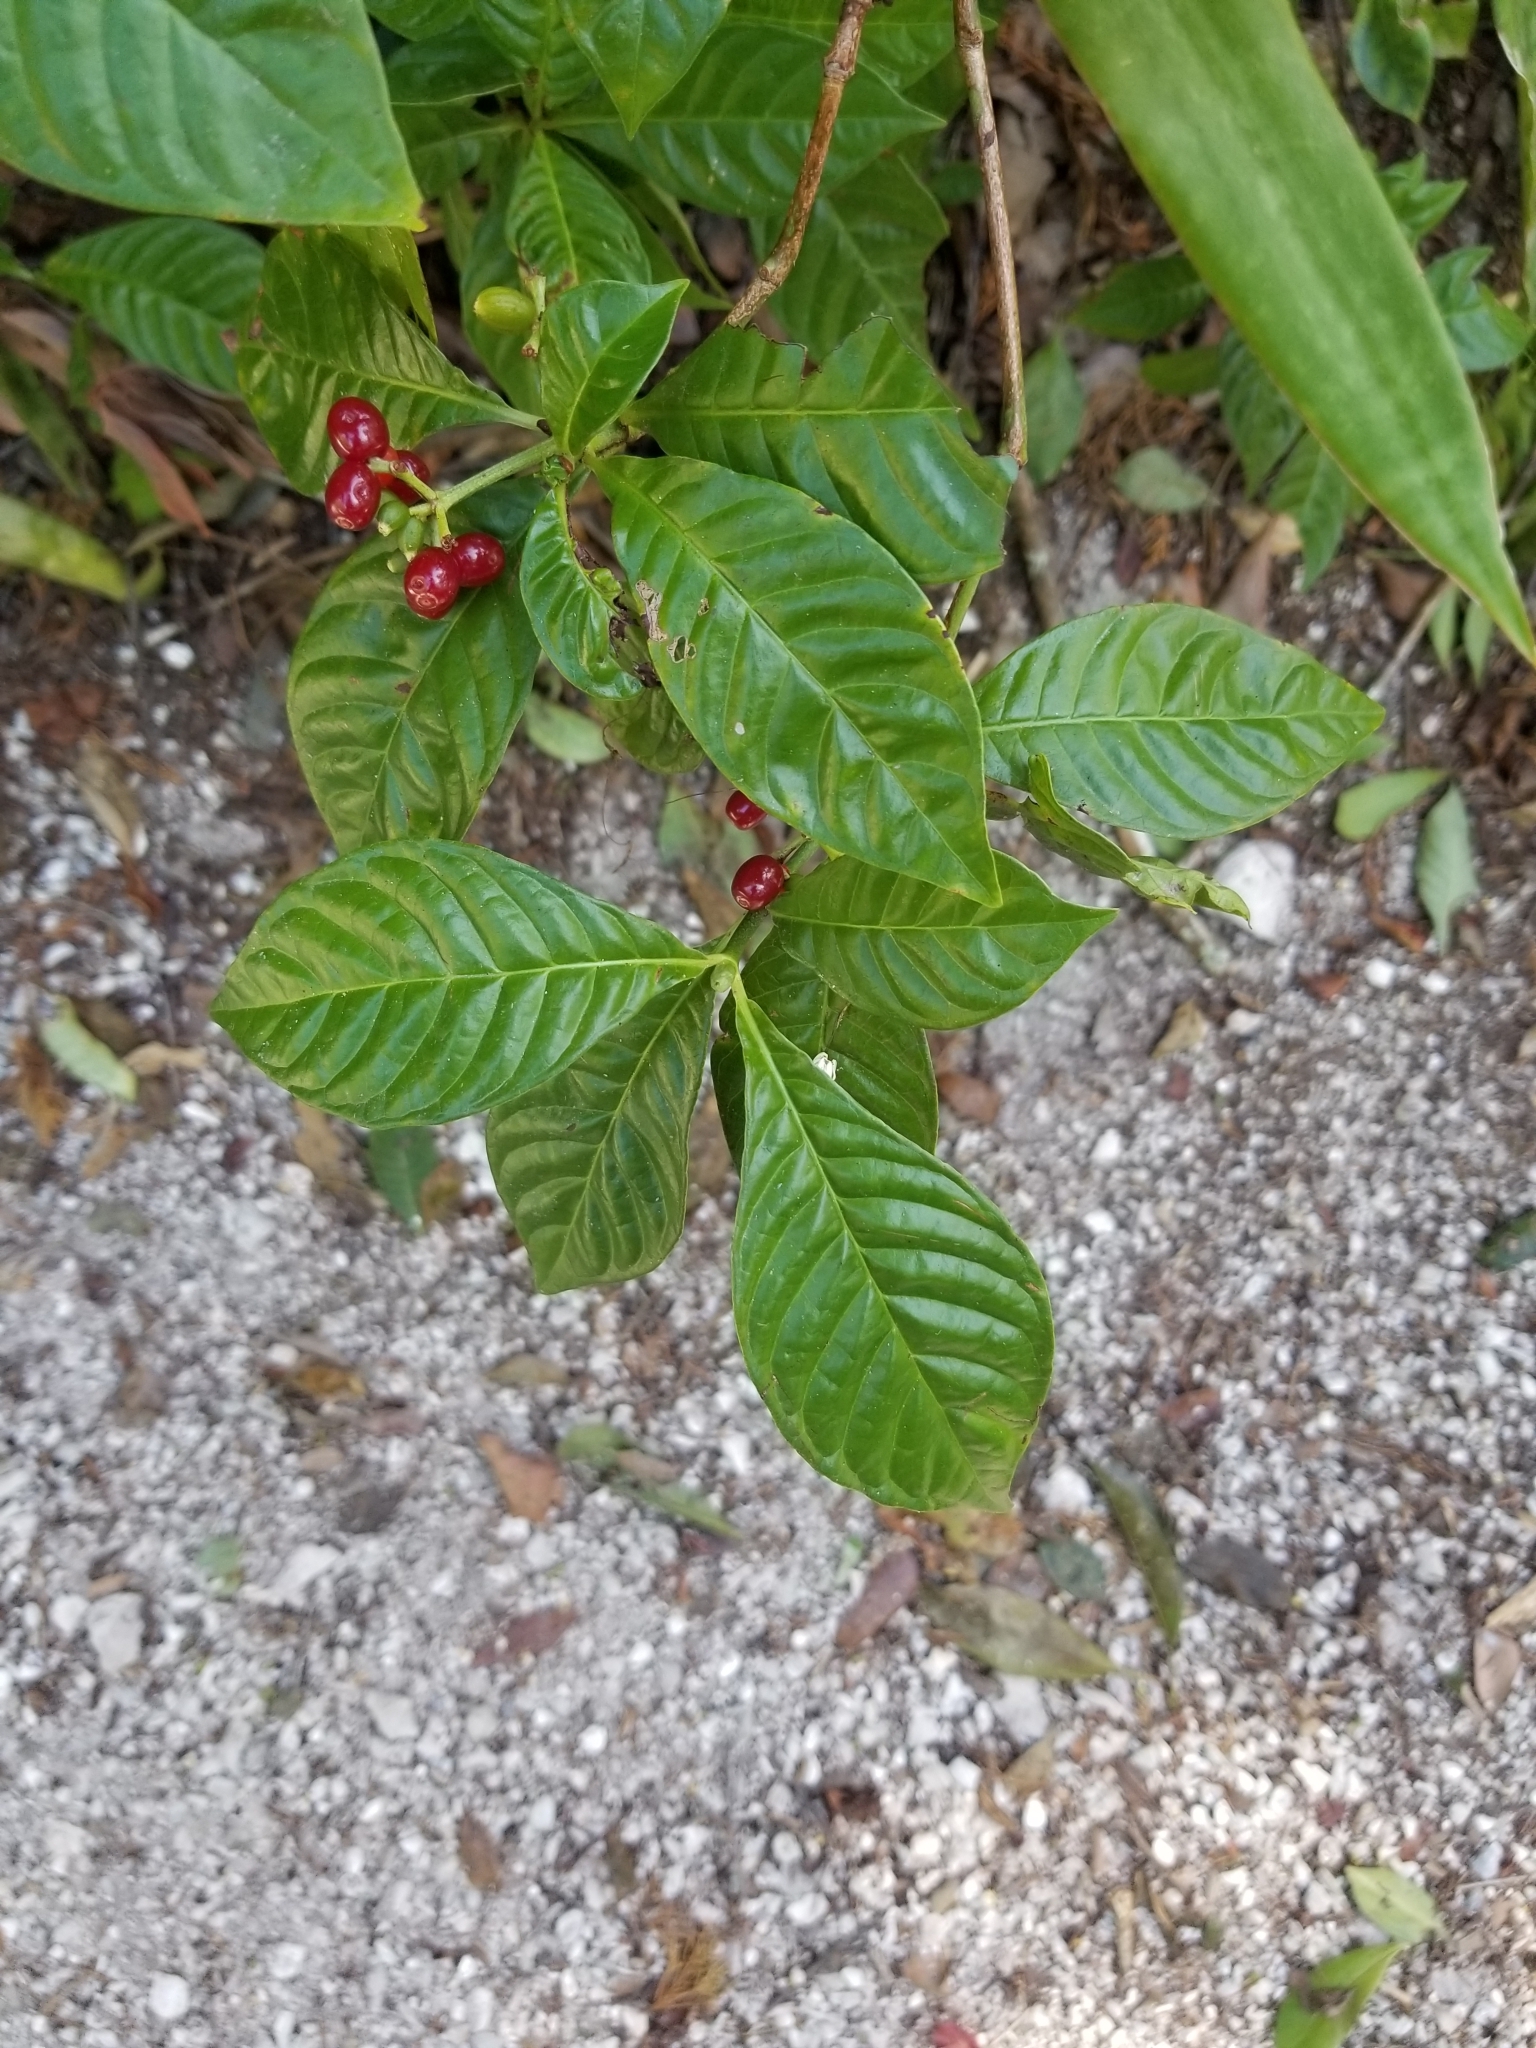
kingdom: Plantae
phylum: Tracheophyta
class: Magnoliopsida
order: Gentianales
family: Rubiaceae
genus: Psychotria
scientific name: Psychotria nervosa
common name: Bastard cankerberry
